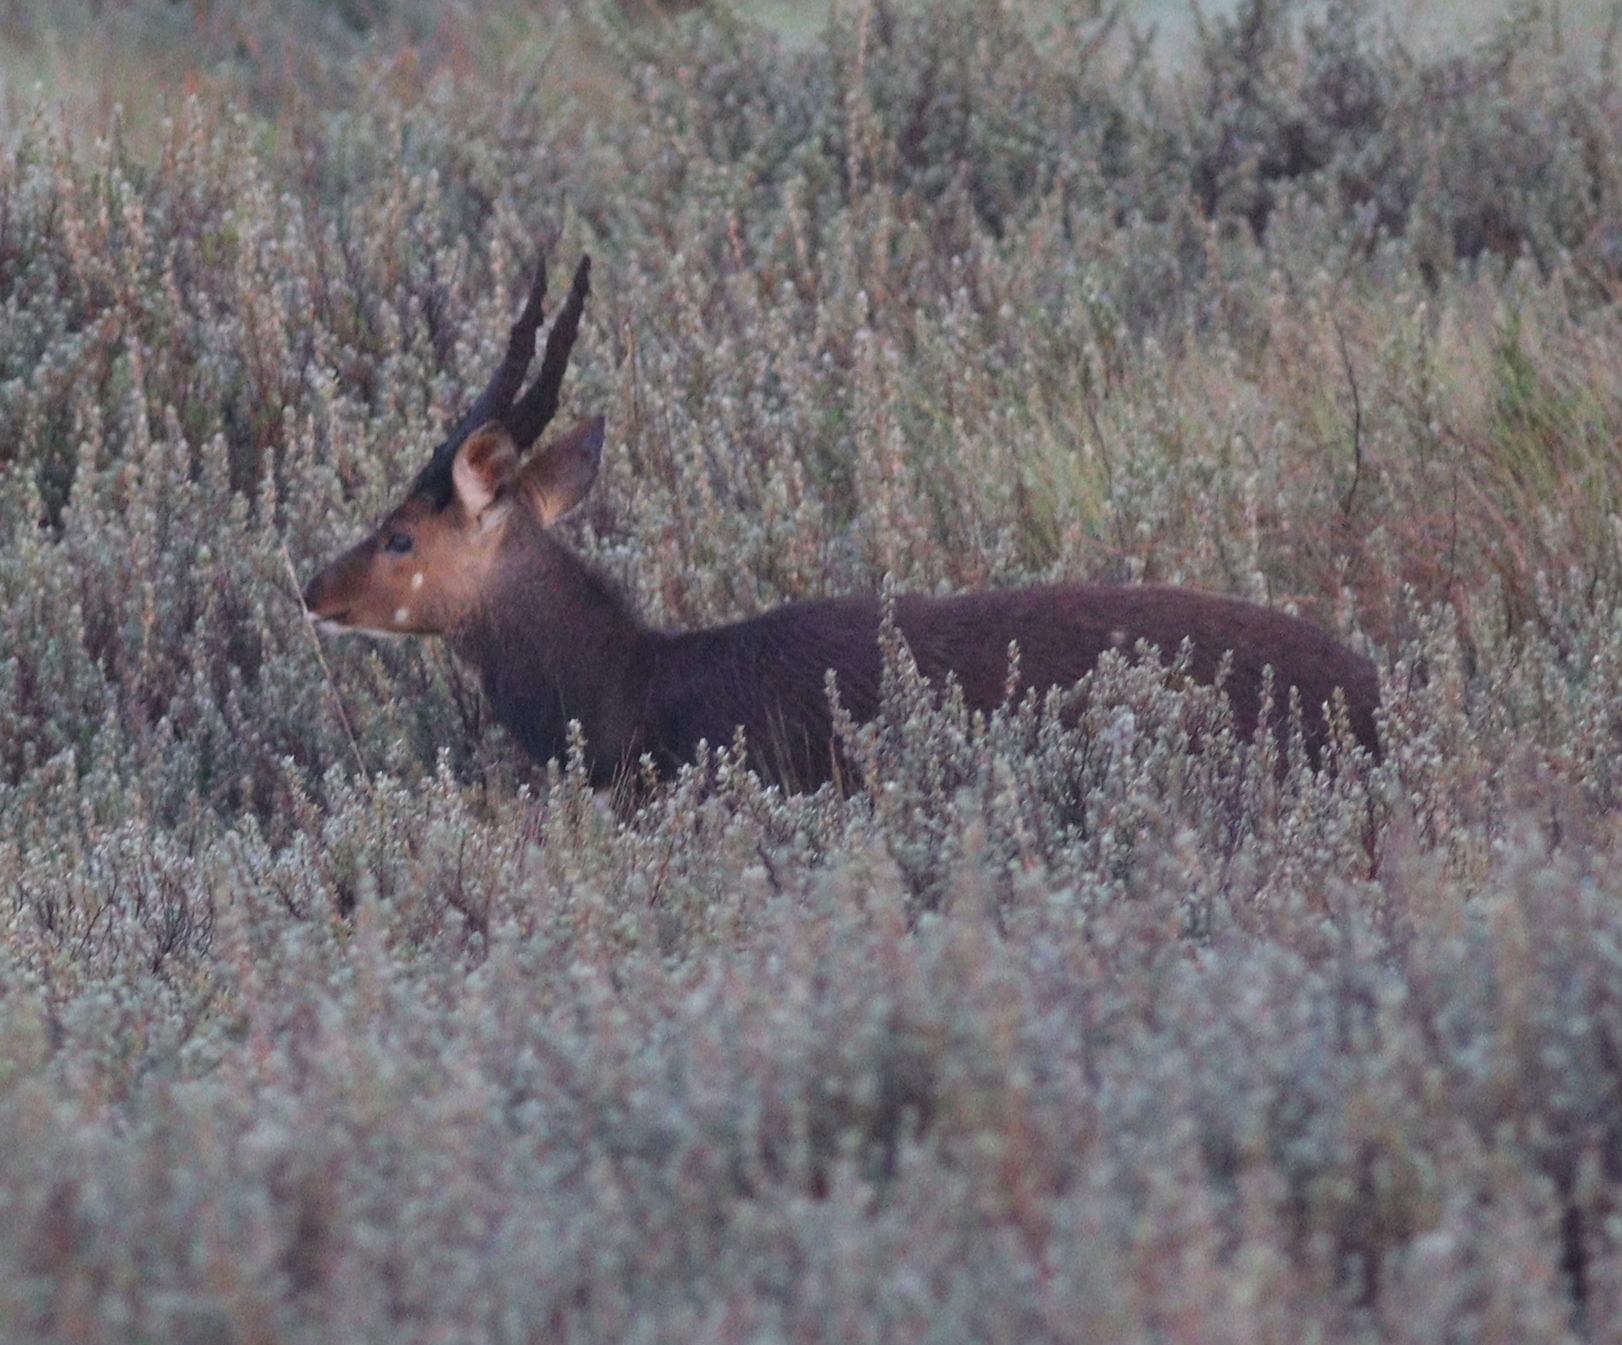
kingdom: Animalia
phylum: Chordata
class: Mammalia
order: Artiodactyla
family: Bovidae
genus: Tragelaphus
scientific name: Tragelaphus scriptus
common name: Bushbuck
